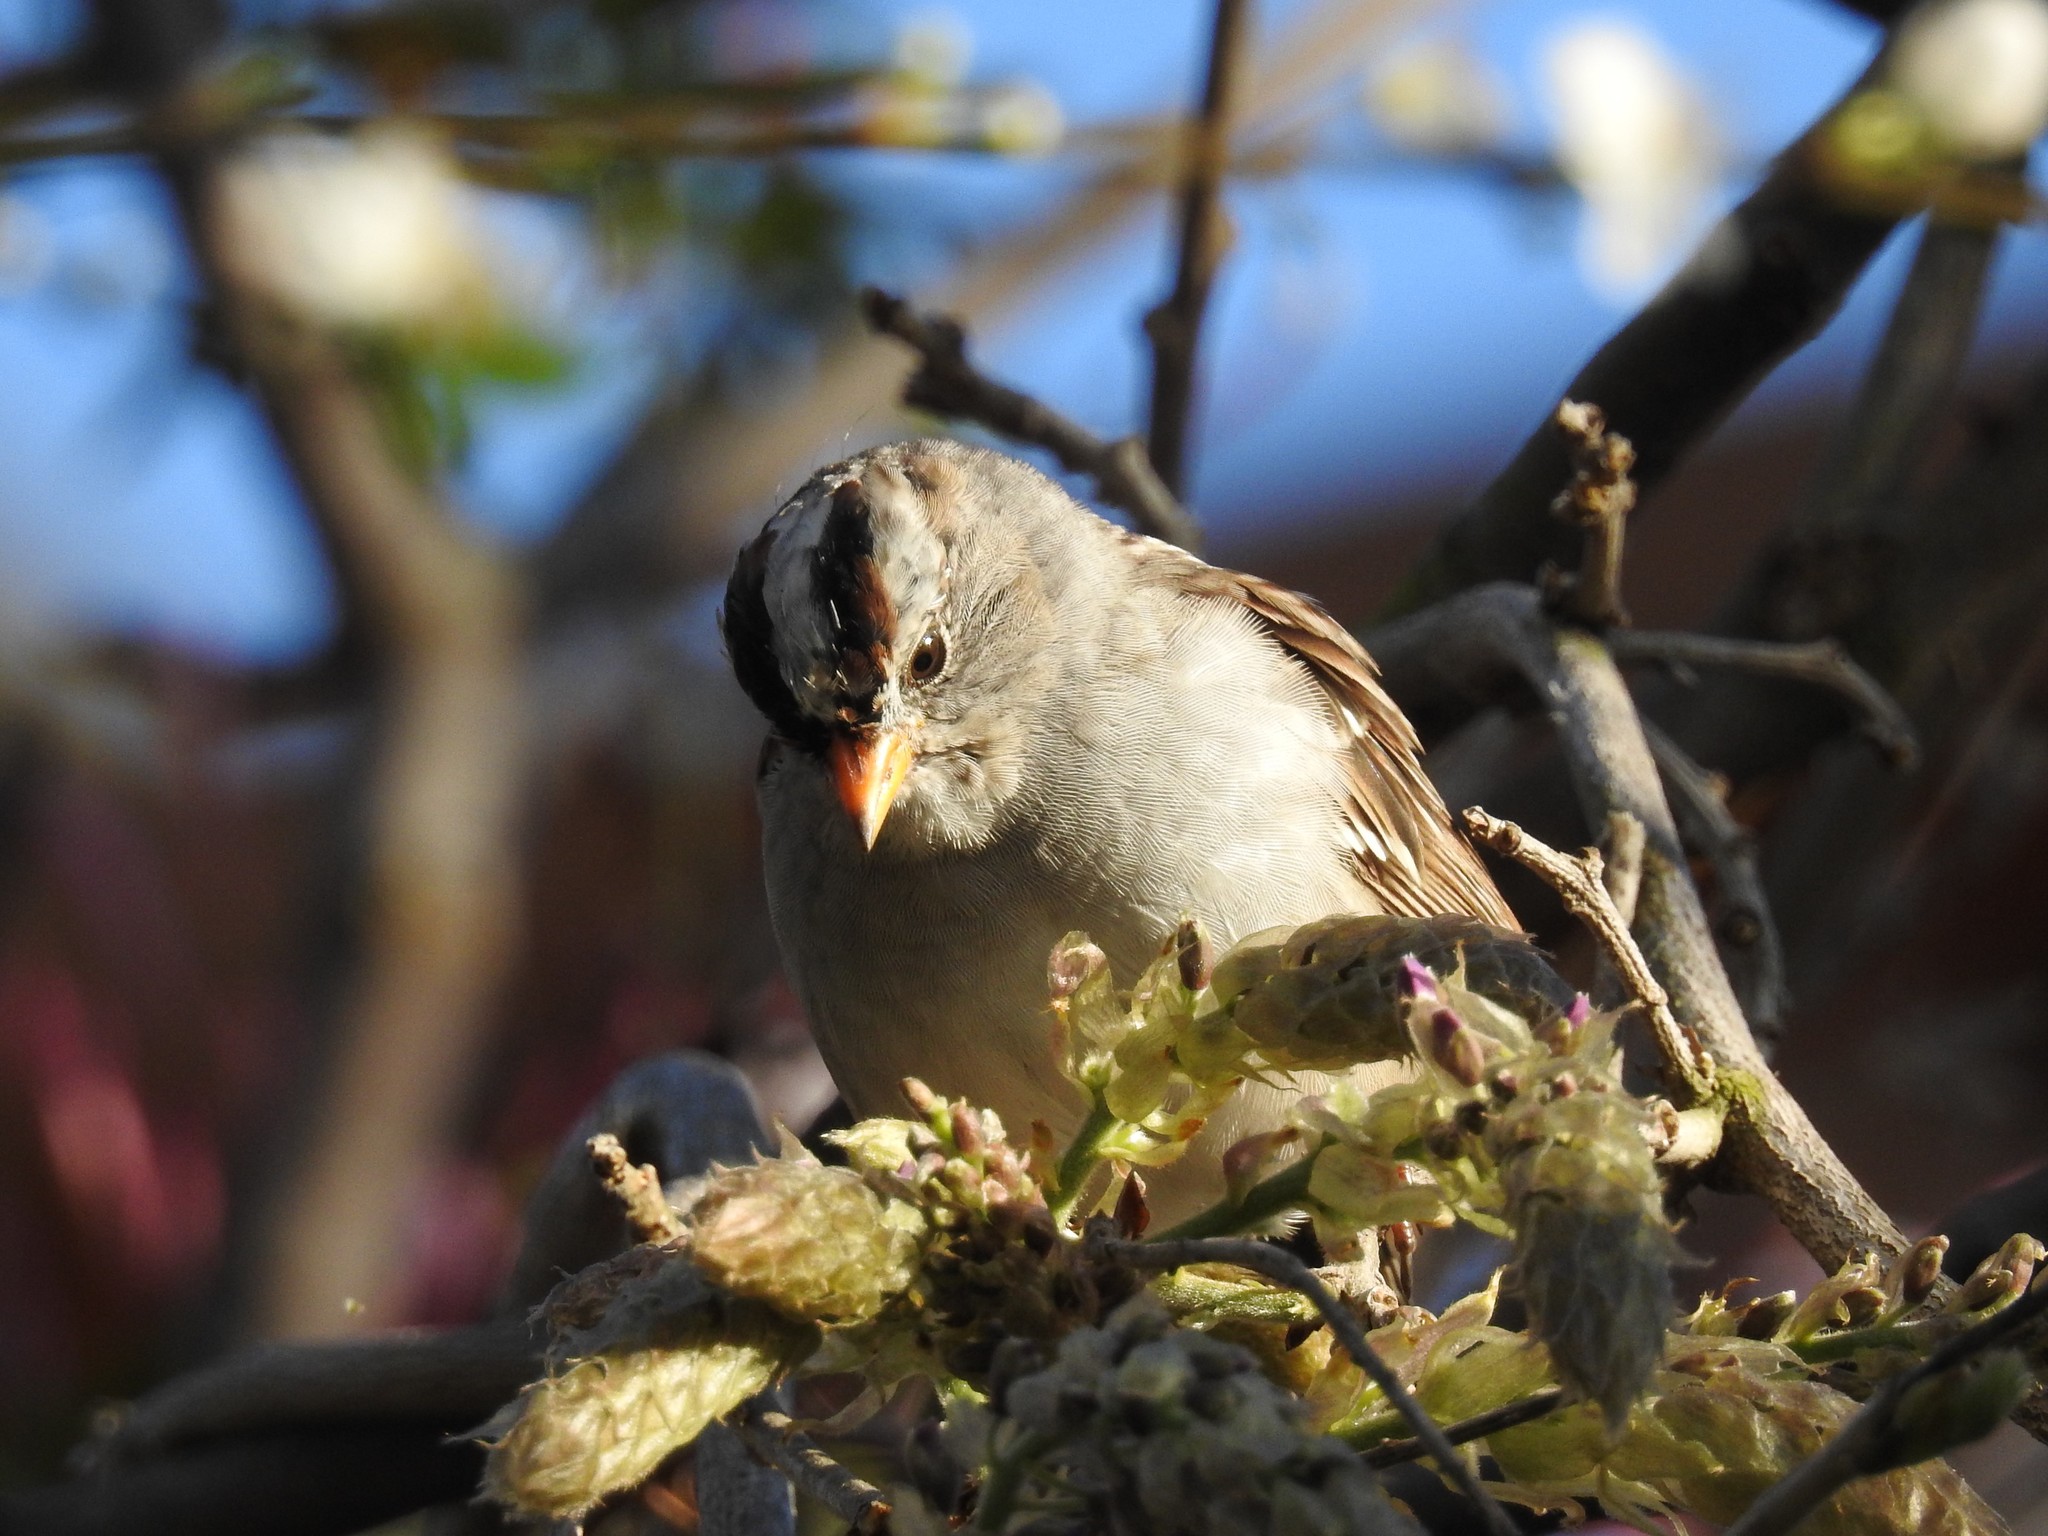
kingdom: Animalia
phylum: Chordata
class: Aves
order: Passeriformes
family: Passerellidae
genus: Zonotrichia
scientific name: Zonotrichia leucophrys
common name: White-crowned sparrow
